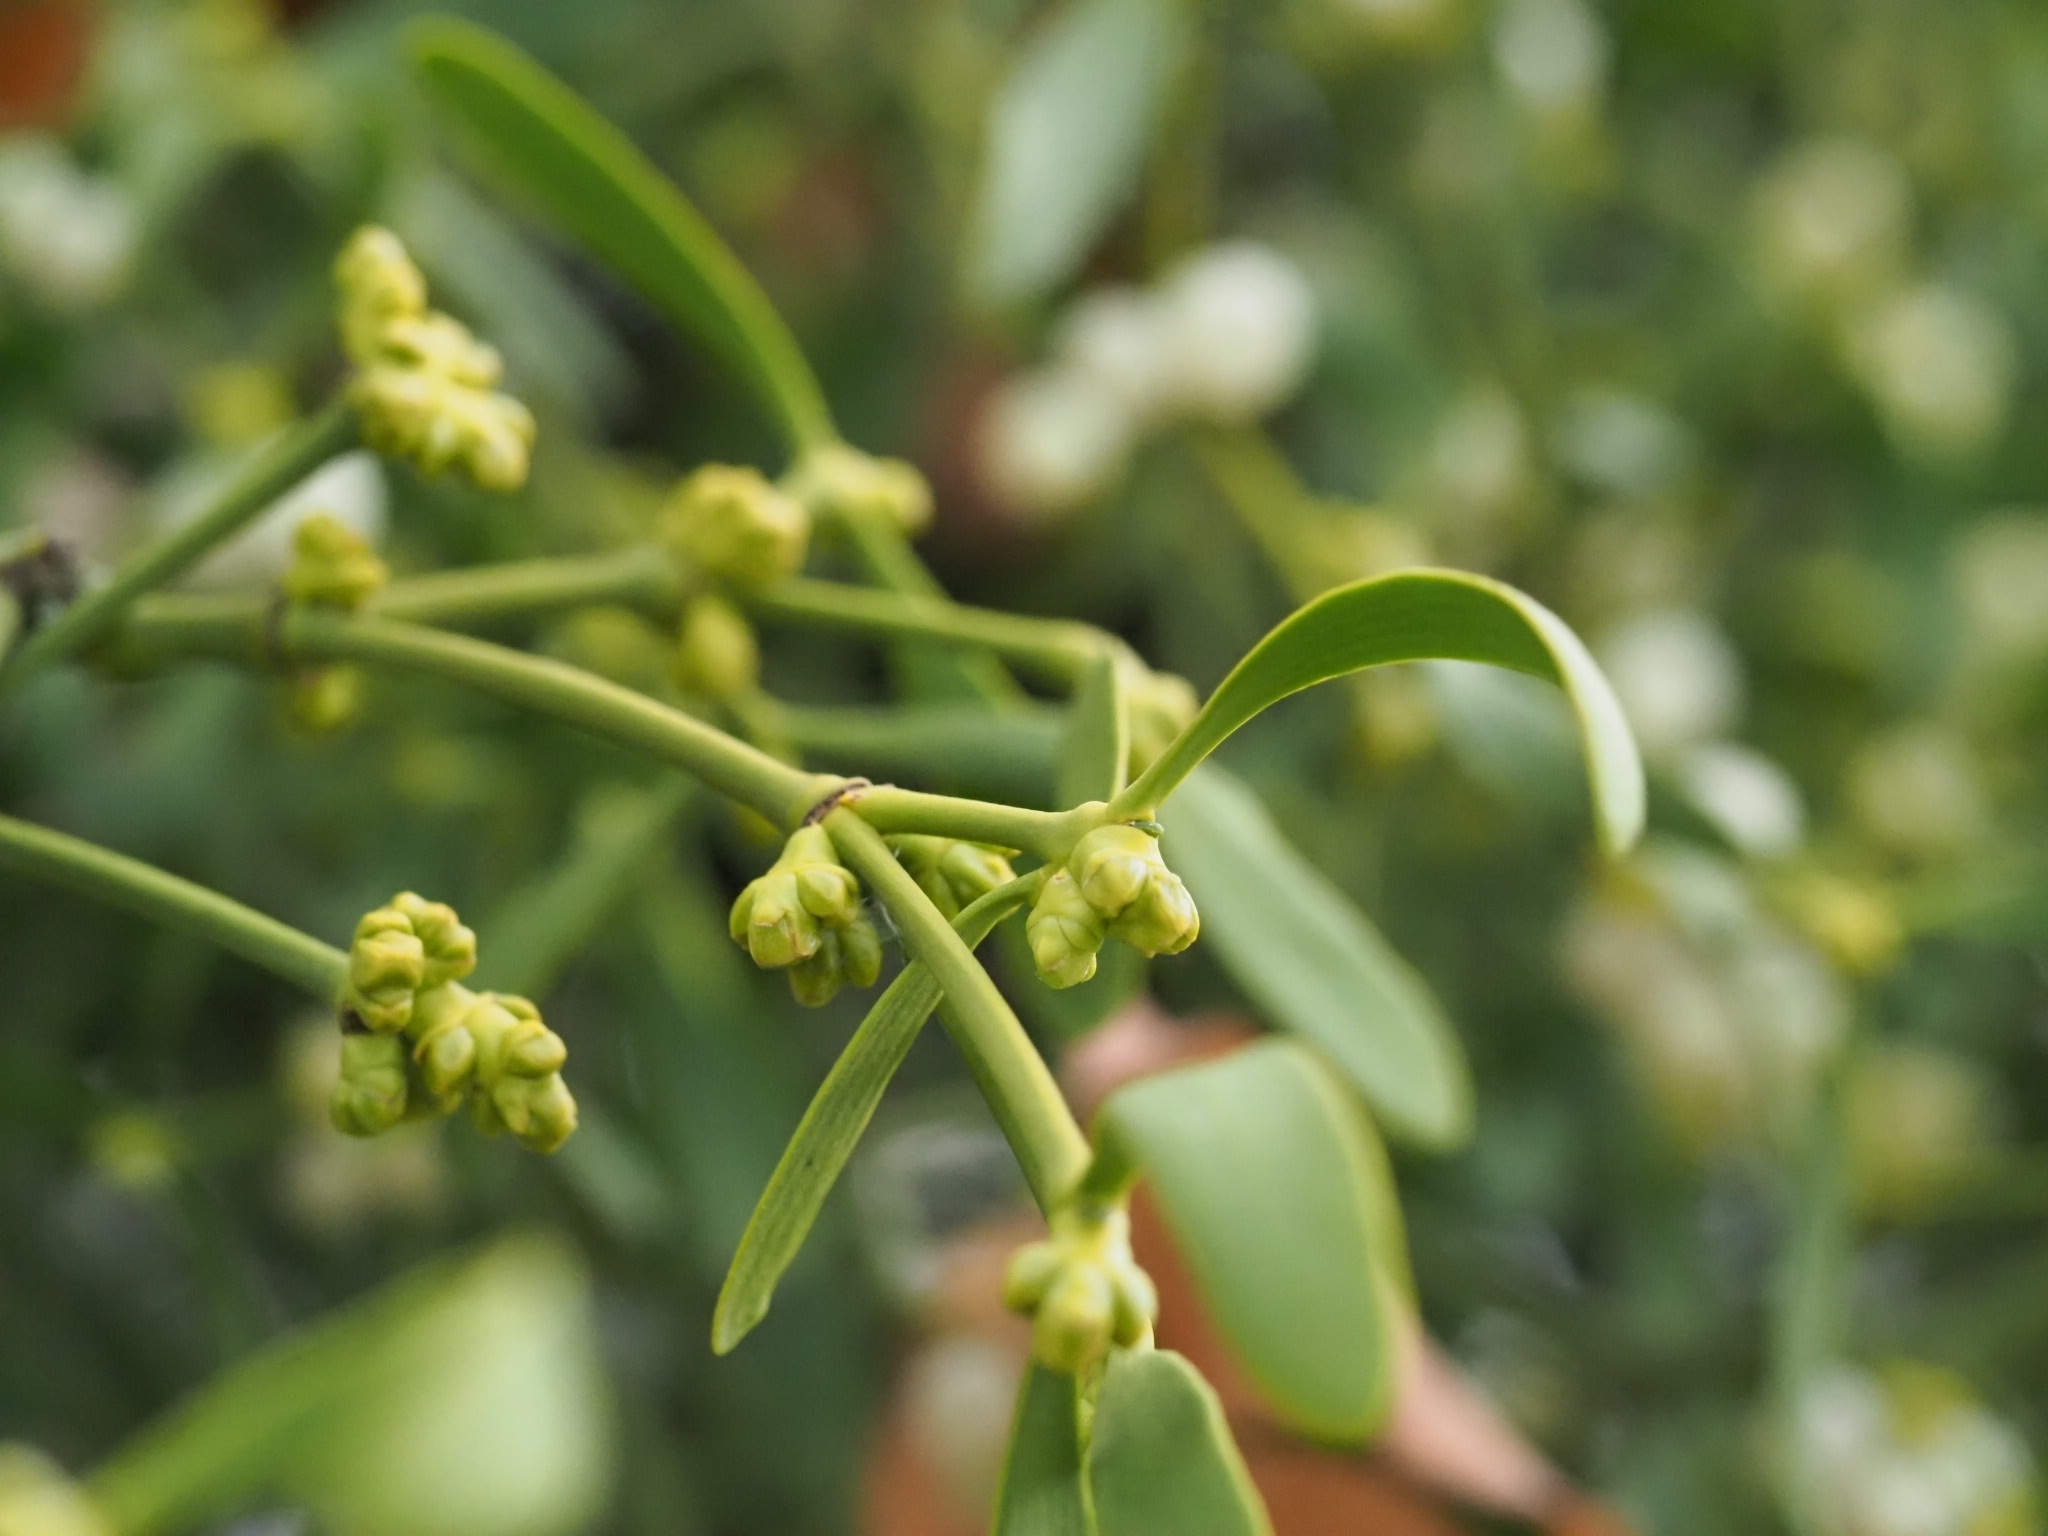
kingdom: Plantae
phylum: Tracheophyta
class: Magnoliopsida
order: Santalales
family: Viscaceae
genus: Viscum
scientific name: Viscum album
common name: Mistletoe
